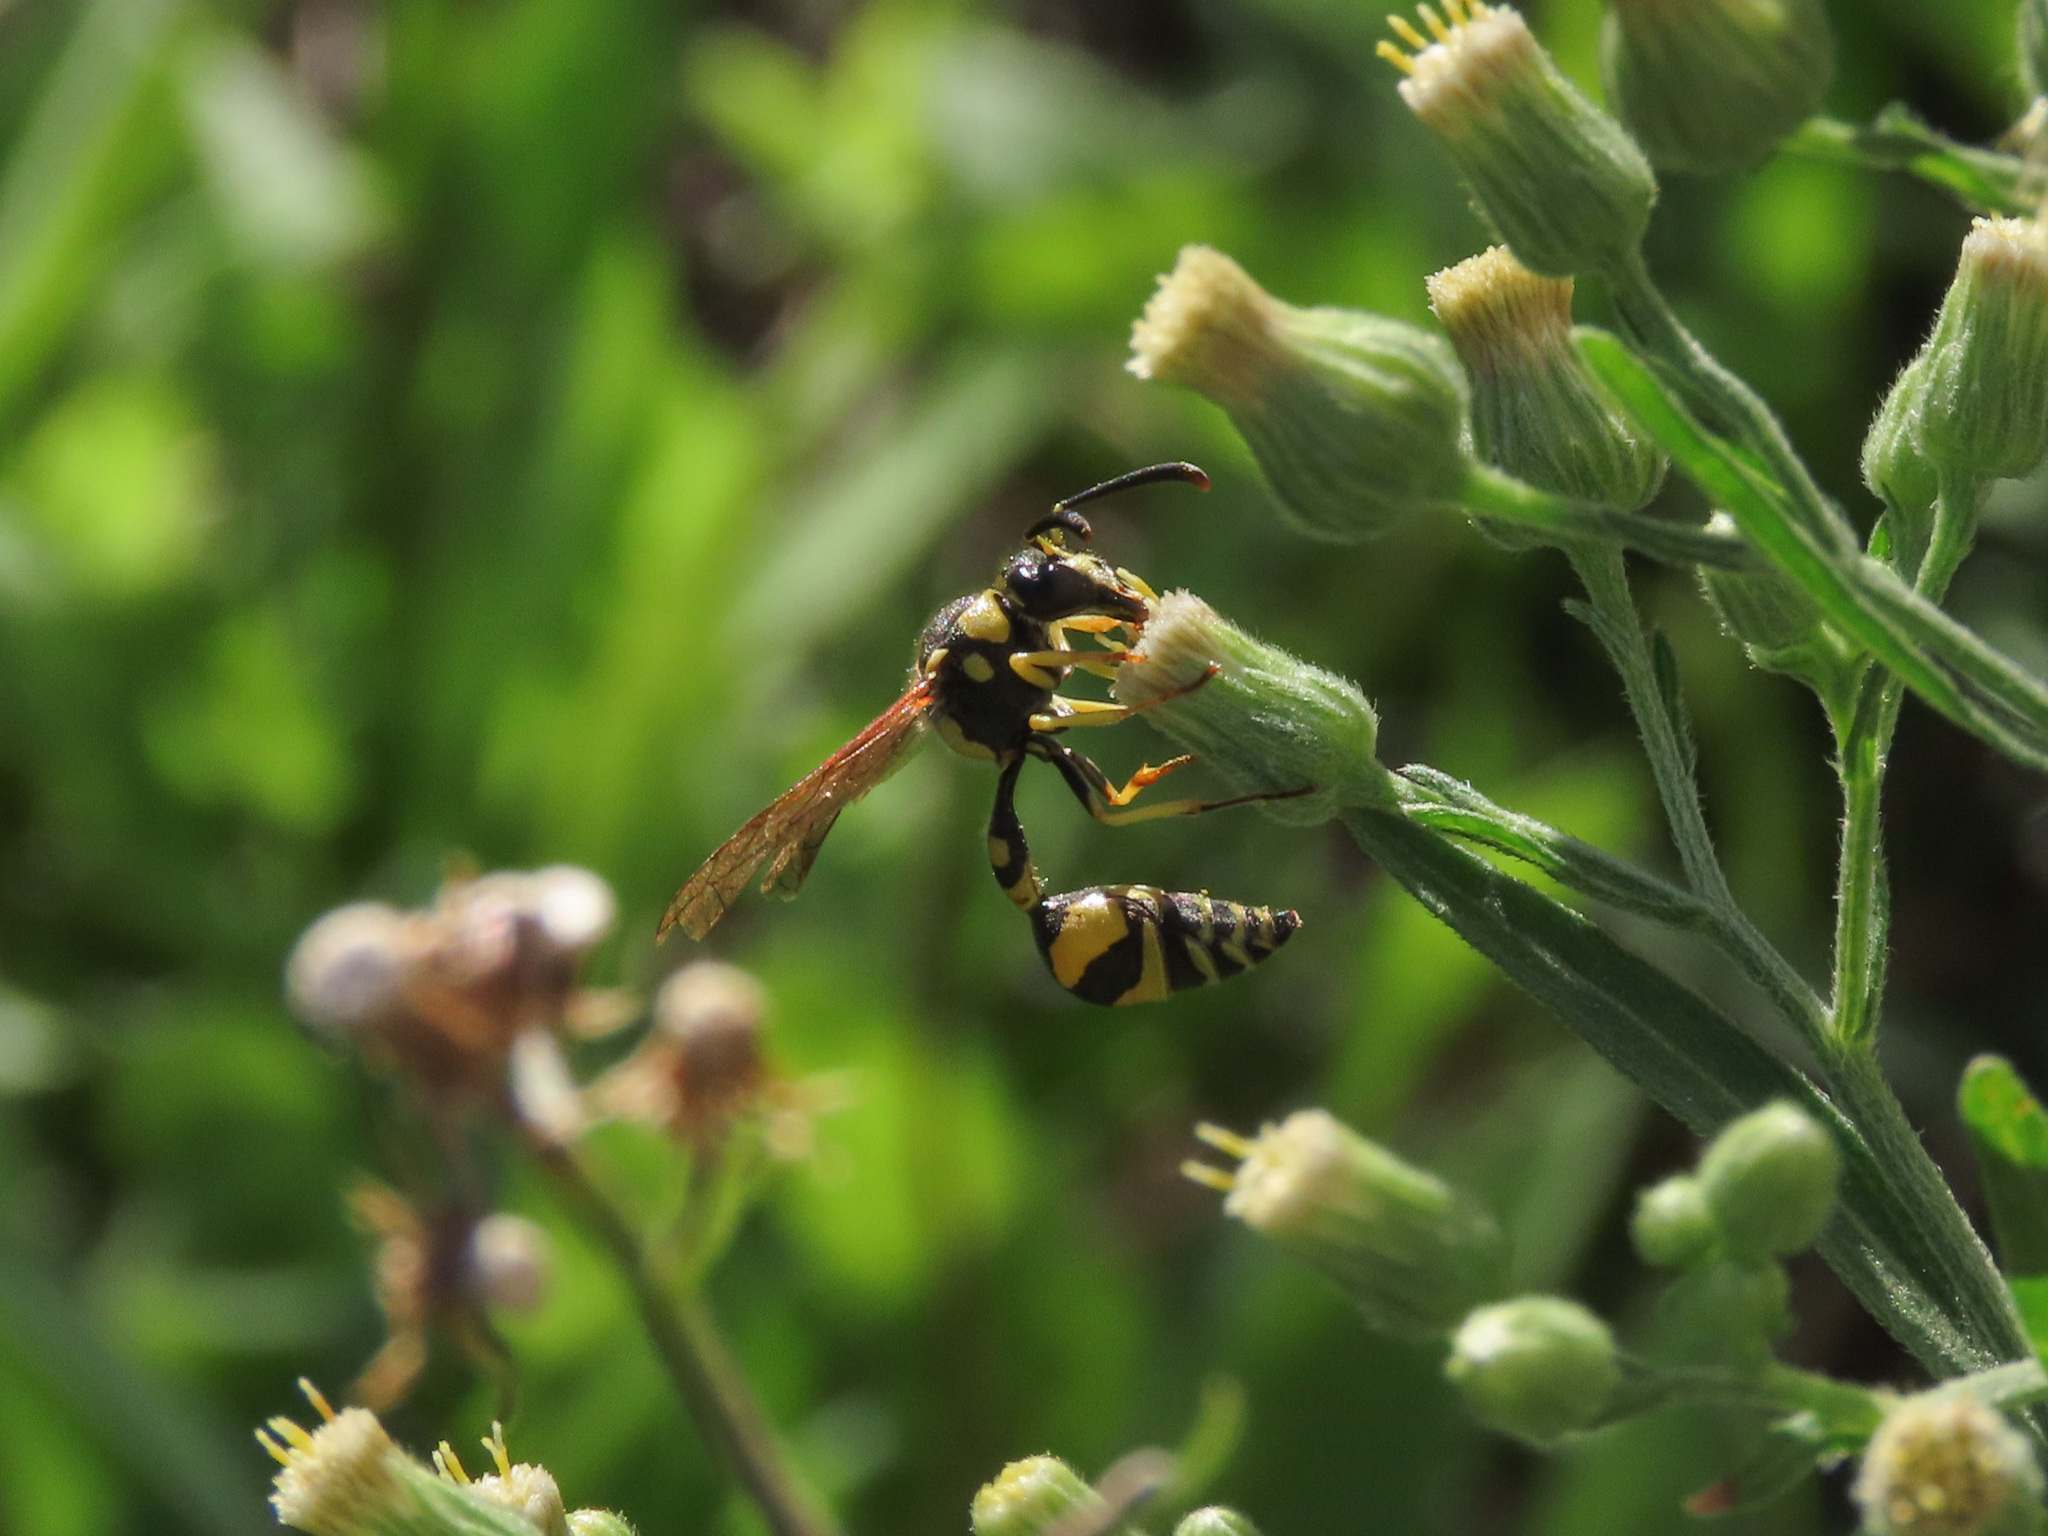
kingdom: Animalia
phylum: Arthropoda
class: Insecta
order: Hymenoptera
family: Vespidae
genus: Eumenes
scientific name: Eumenes mediterraneus
